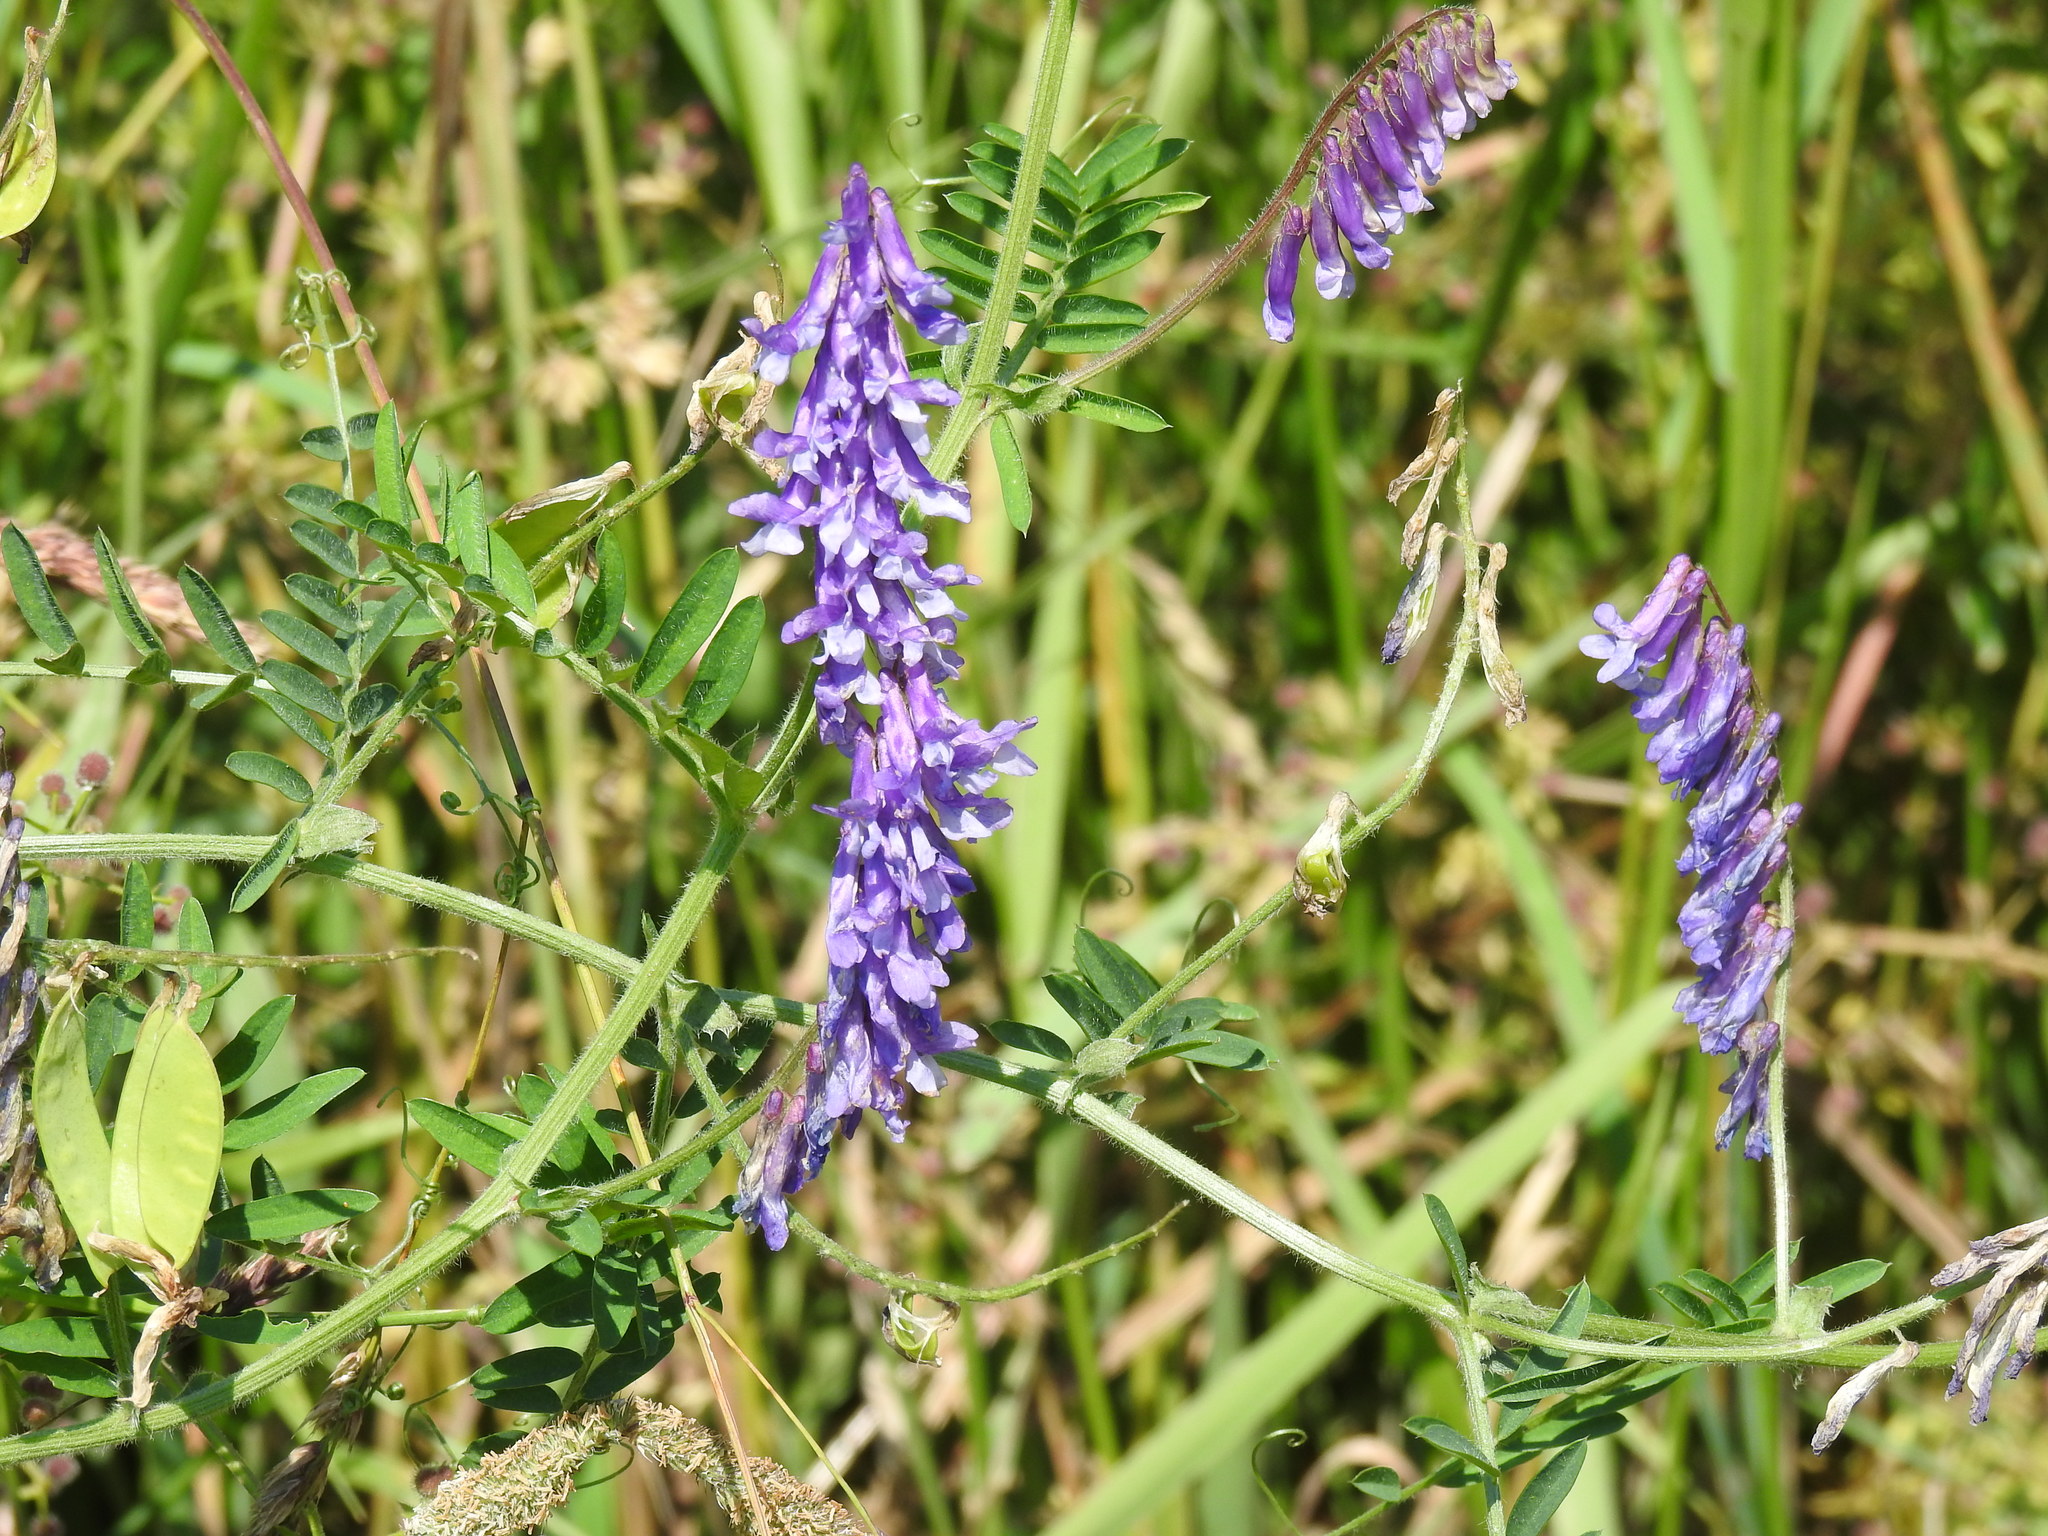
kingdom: Plantae
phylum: Tracheophyta
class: Magnoliopsida
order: Fabales
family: Fabaceae
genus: Vicia
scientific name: Vicia villosa
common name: Fodder vetch
